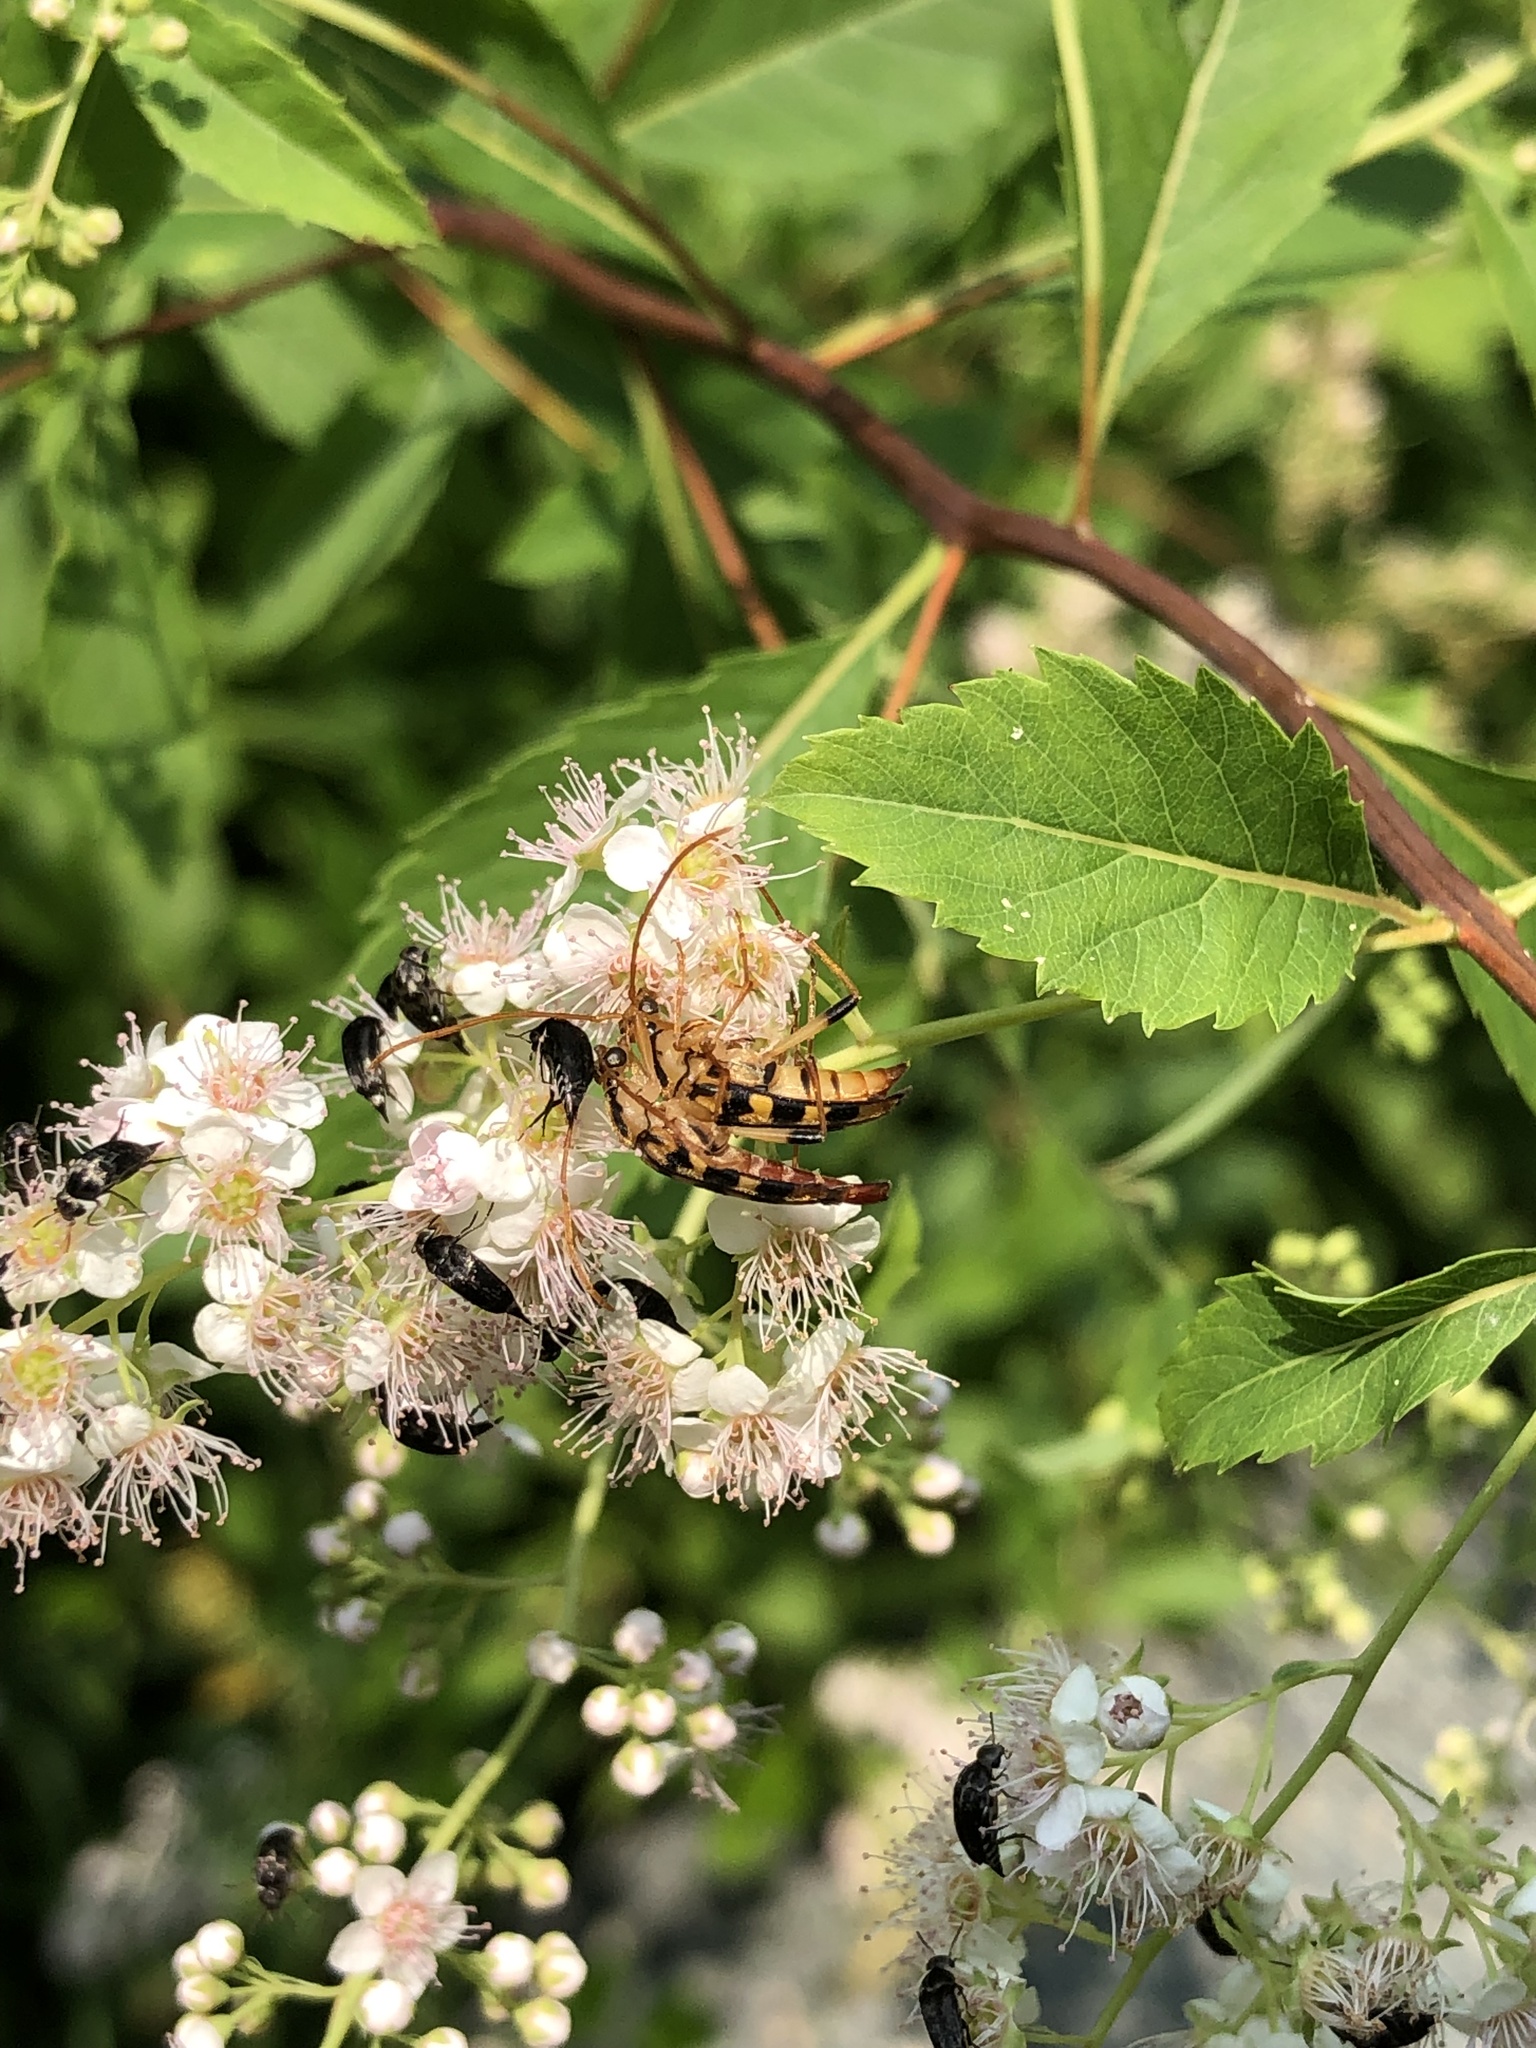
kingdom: Animalia
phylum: Arthropoda
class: Insecta
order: Coleoptera
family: Cerambycidae
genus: Strangalia
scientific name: Strangalia luteicornis
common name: Yellow-horned flower longhorn beetle
